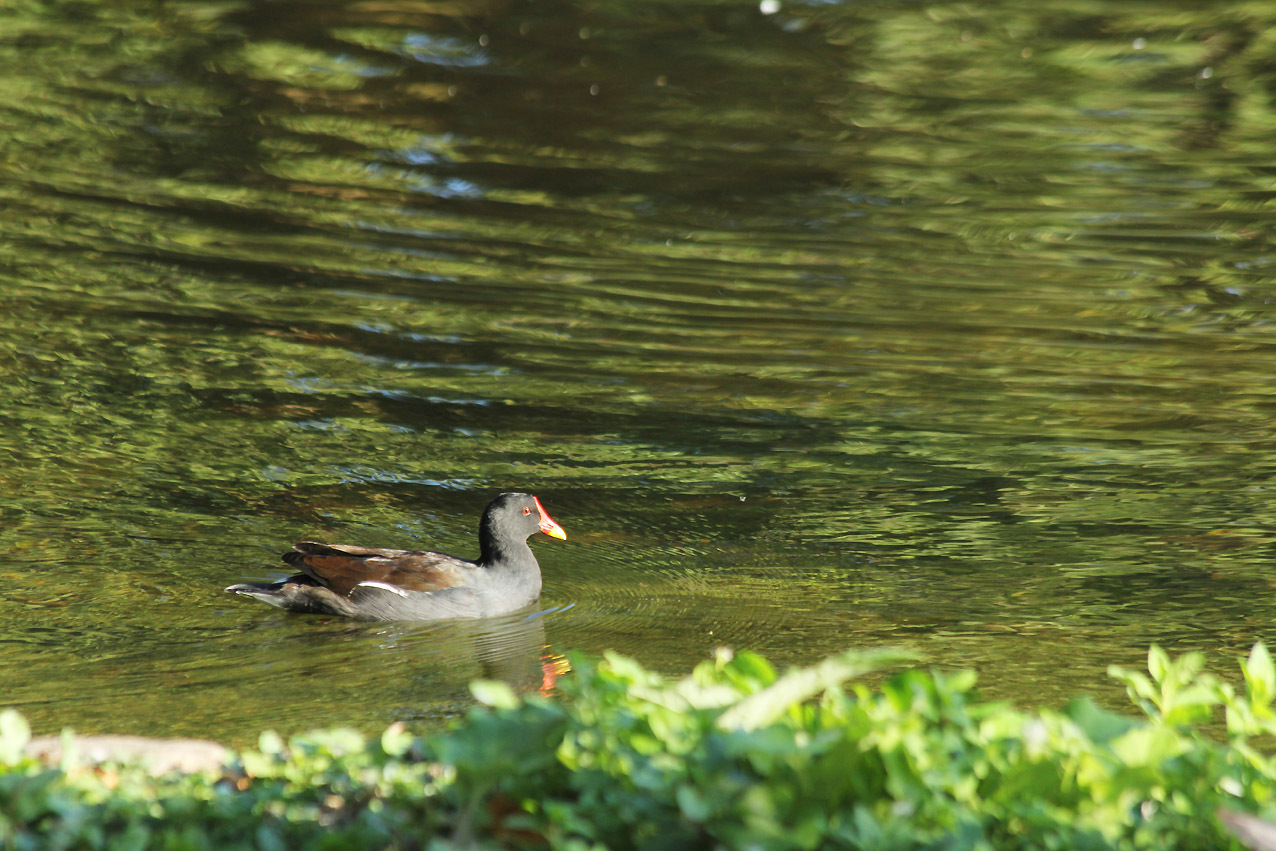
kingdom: Animalia
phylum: Chordata
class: Aves
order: Gruiformes
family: Rallidae
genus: Gallinula
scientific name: Gallinula chloropus
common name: Common moorhen
